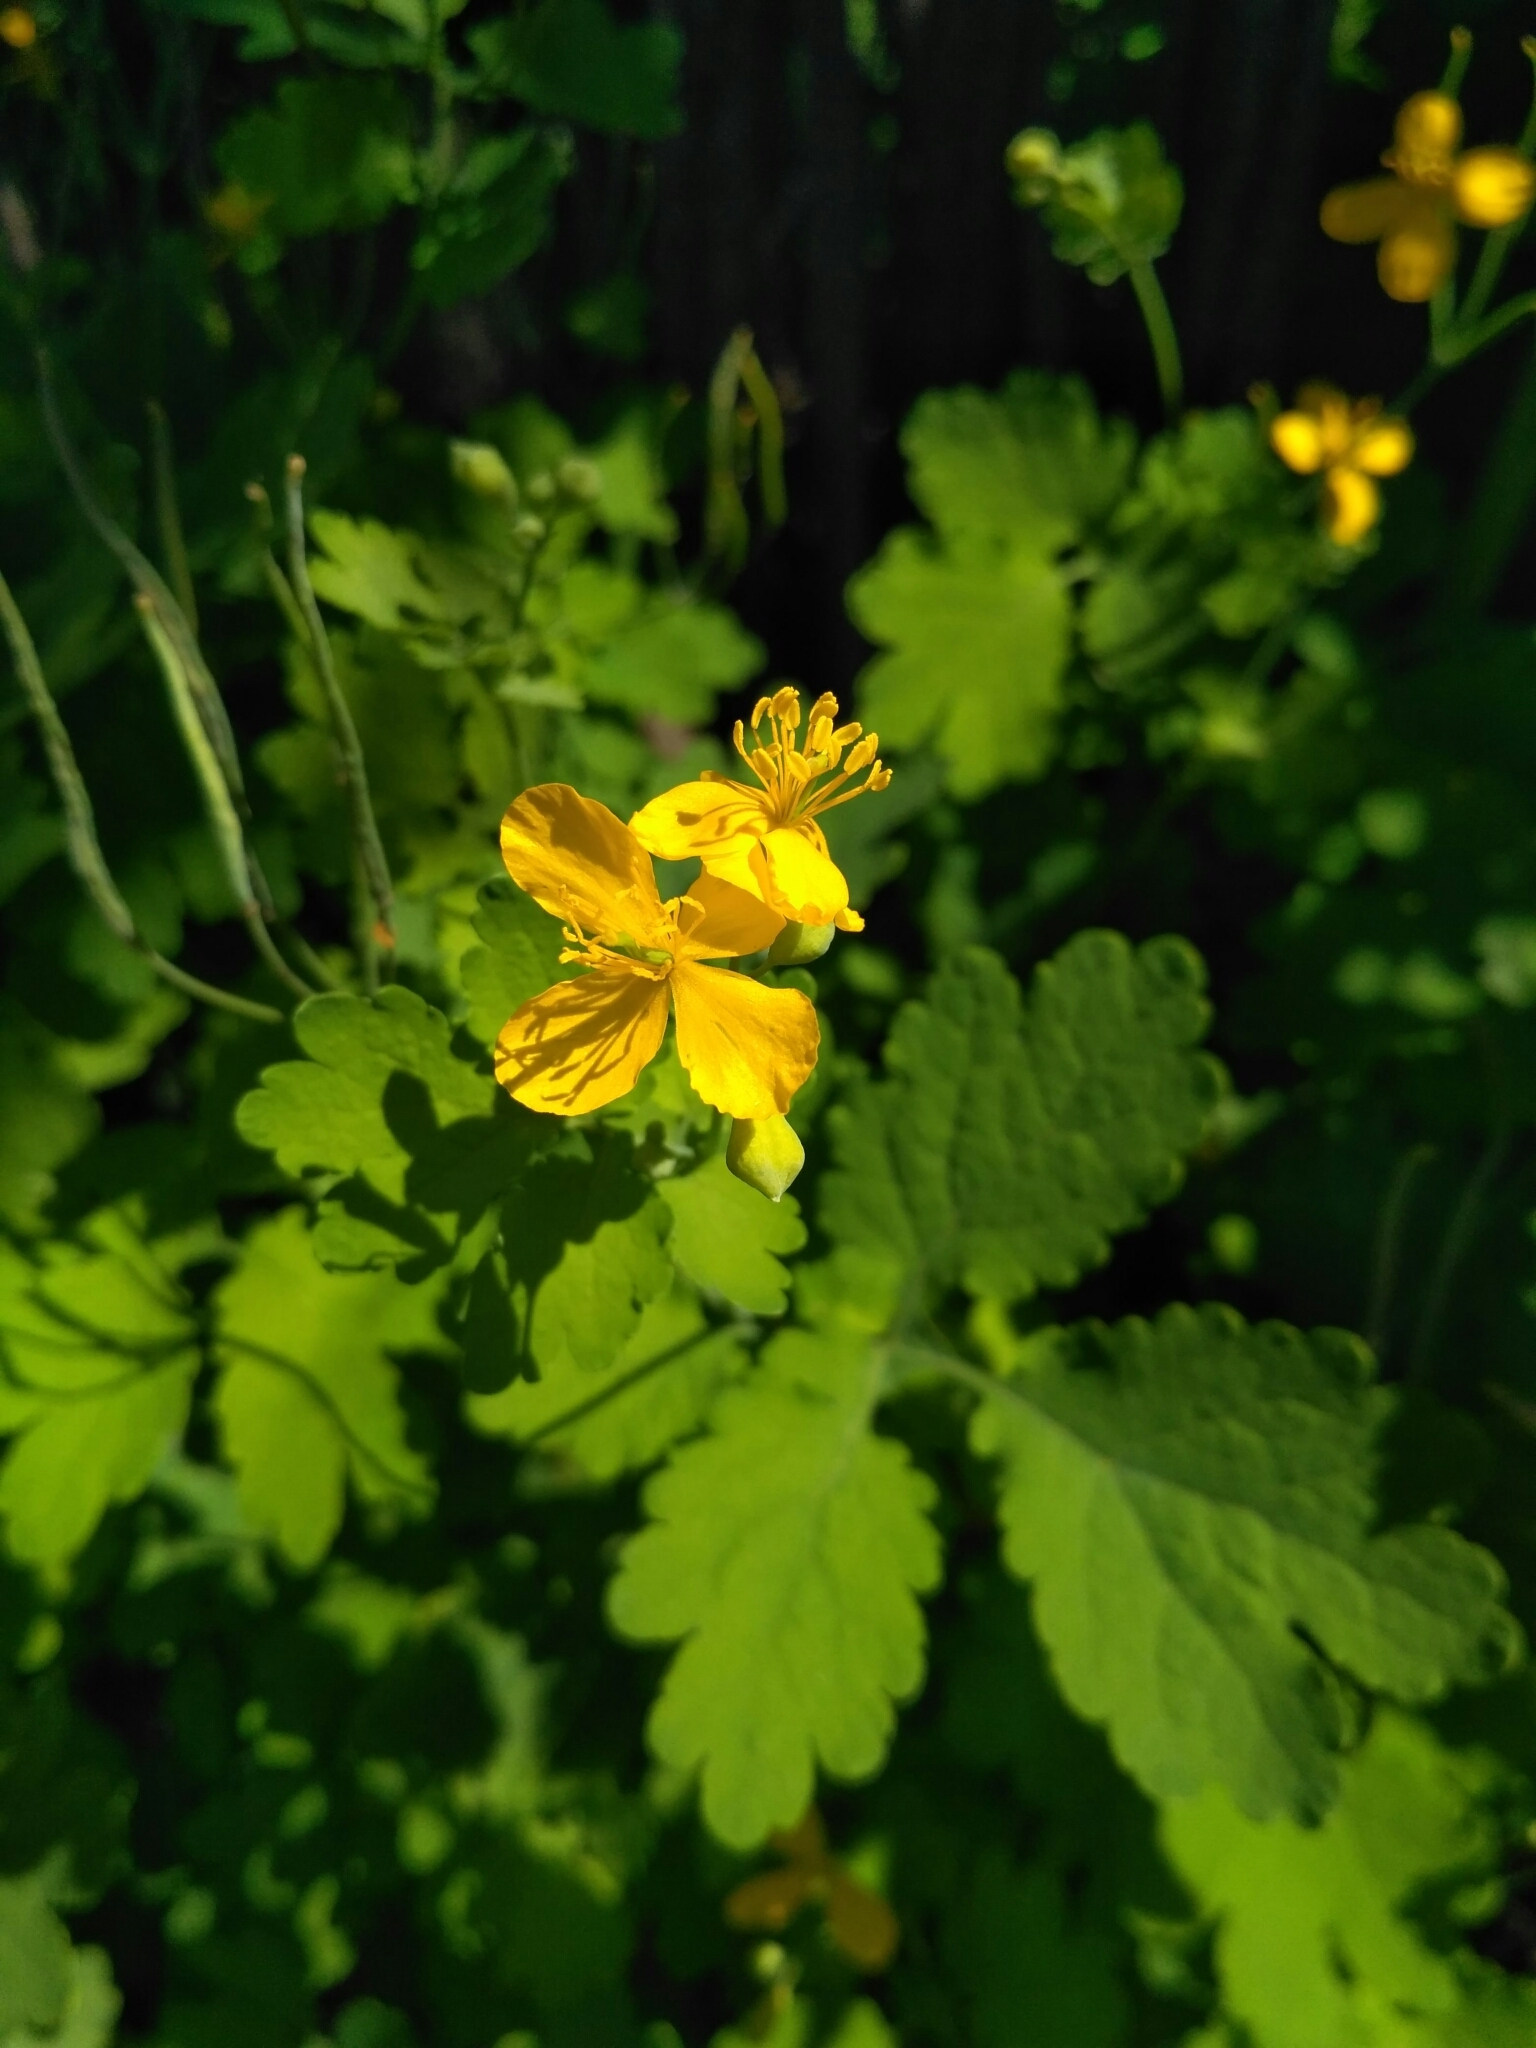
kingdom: Plantae
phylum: Tracheophyta
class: Magnoliopsida
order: Ranunculales
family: Papaveraceae
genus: Chelidonium
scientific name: Chelidonium majus
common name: Greater celandine
